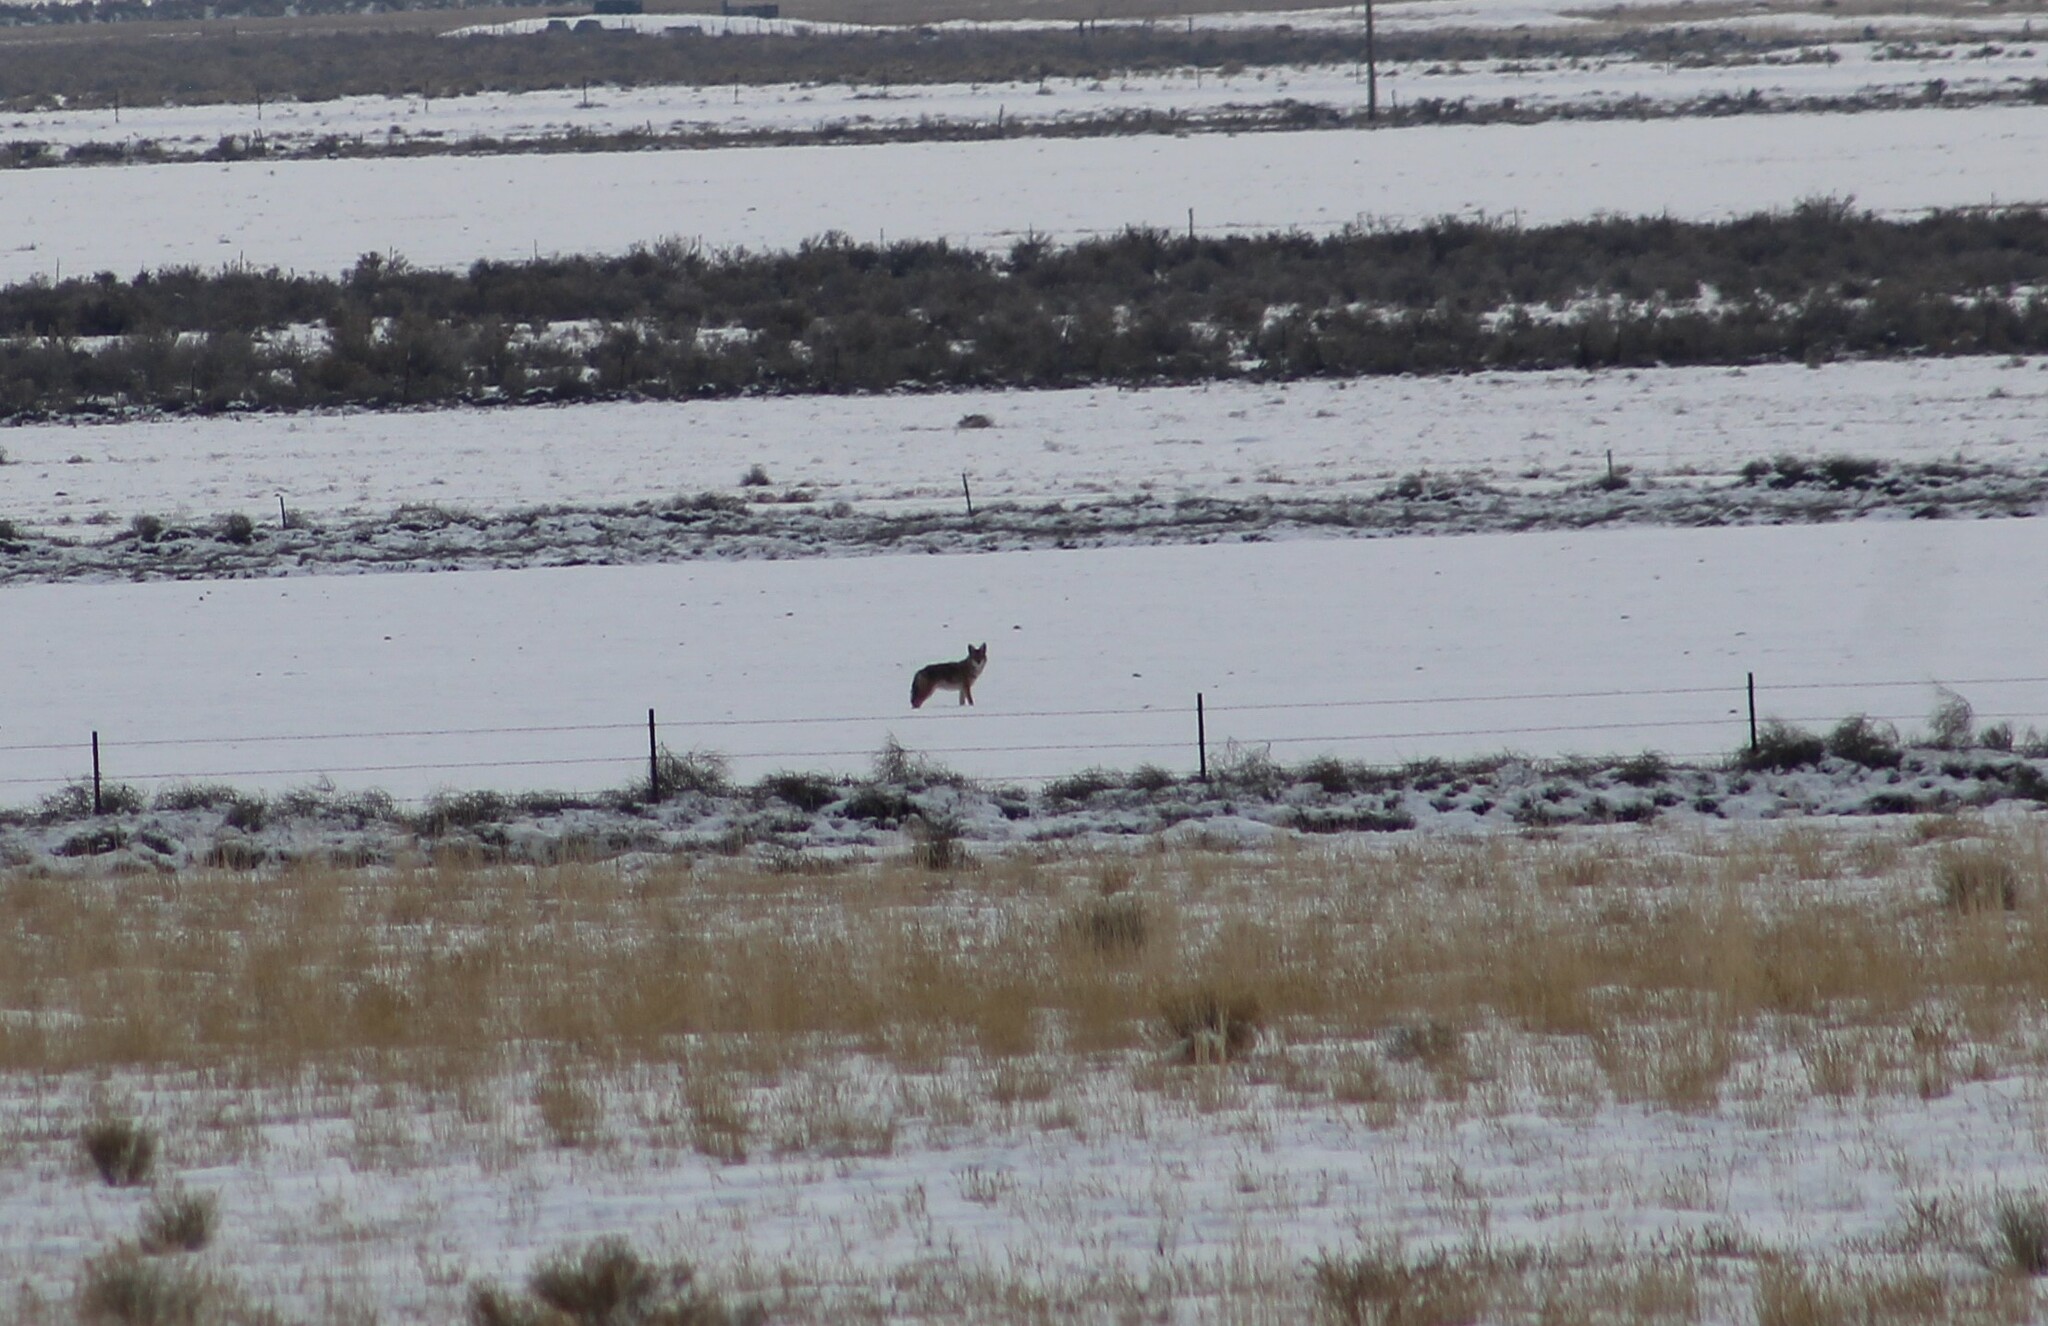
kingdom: Animalia
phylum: Chordata
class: Mammalia
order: Carnivora
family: Canidae
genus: Canis
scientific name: Canis latrans
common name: Coyote
